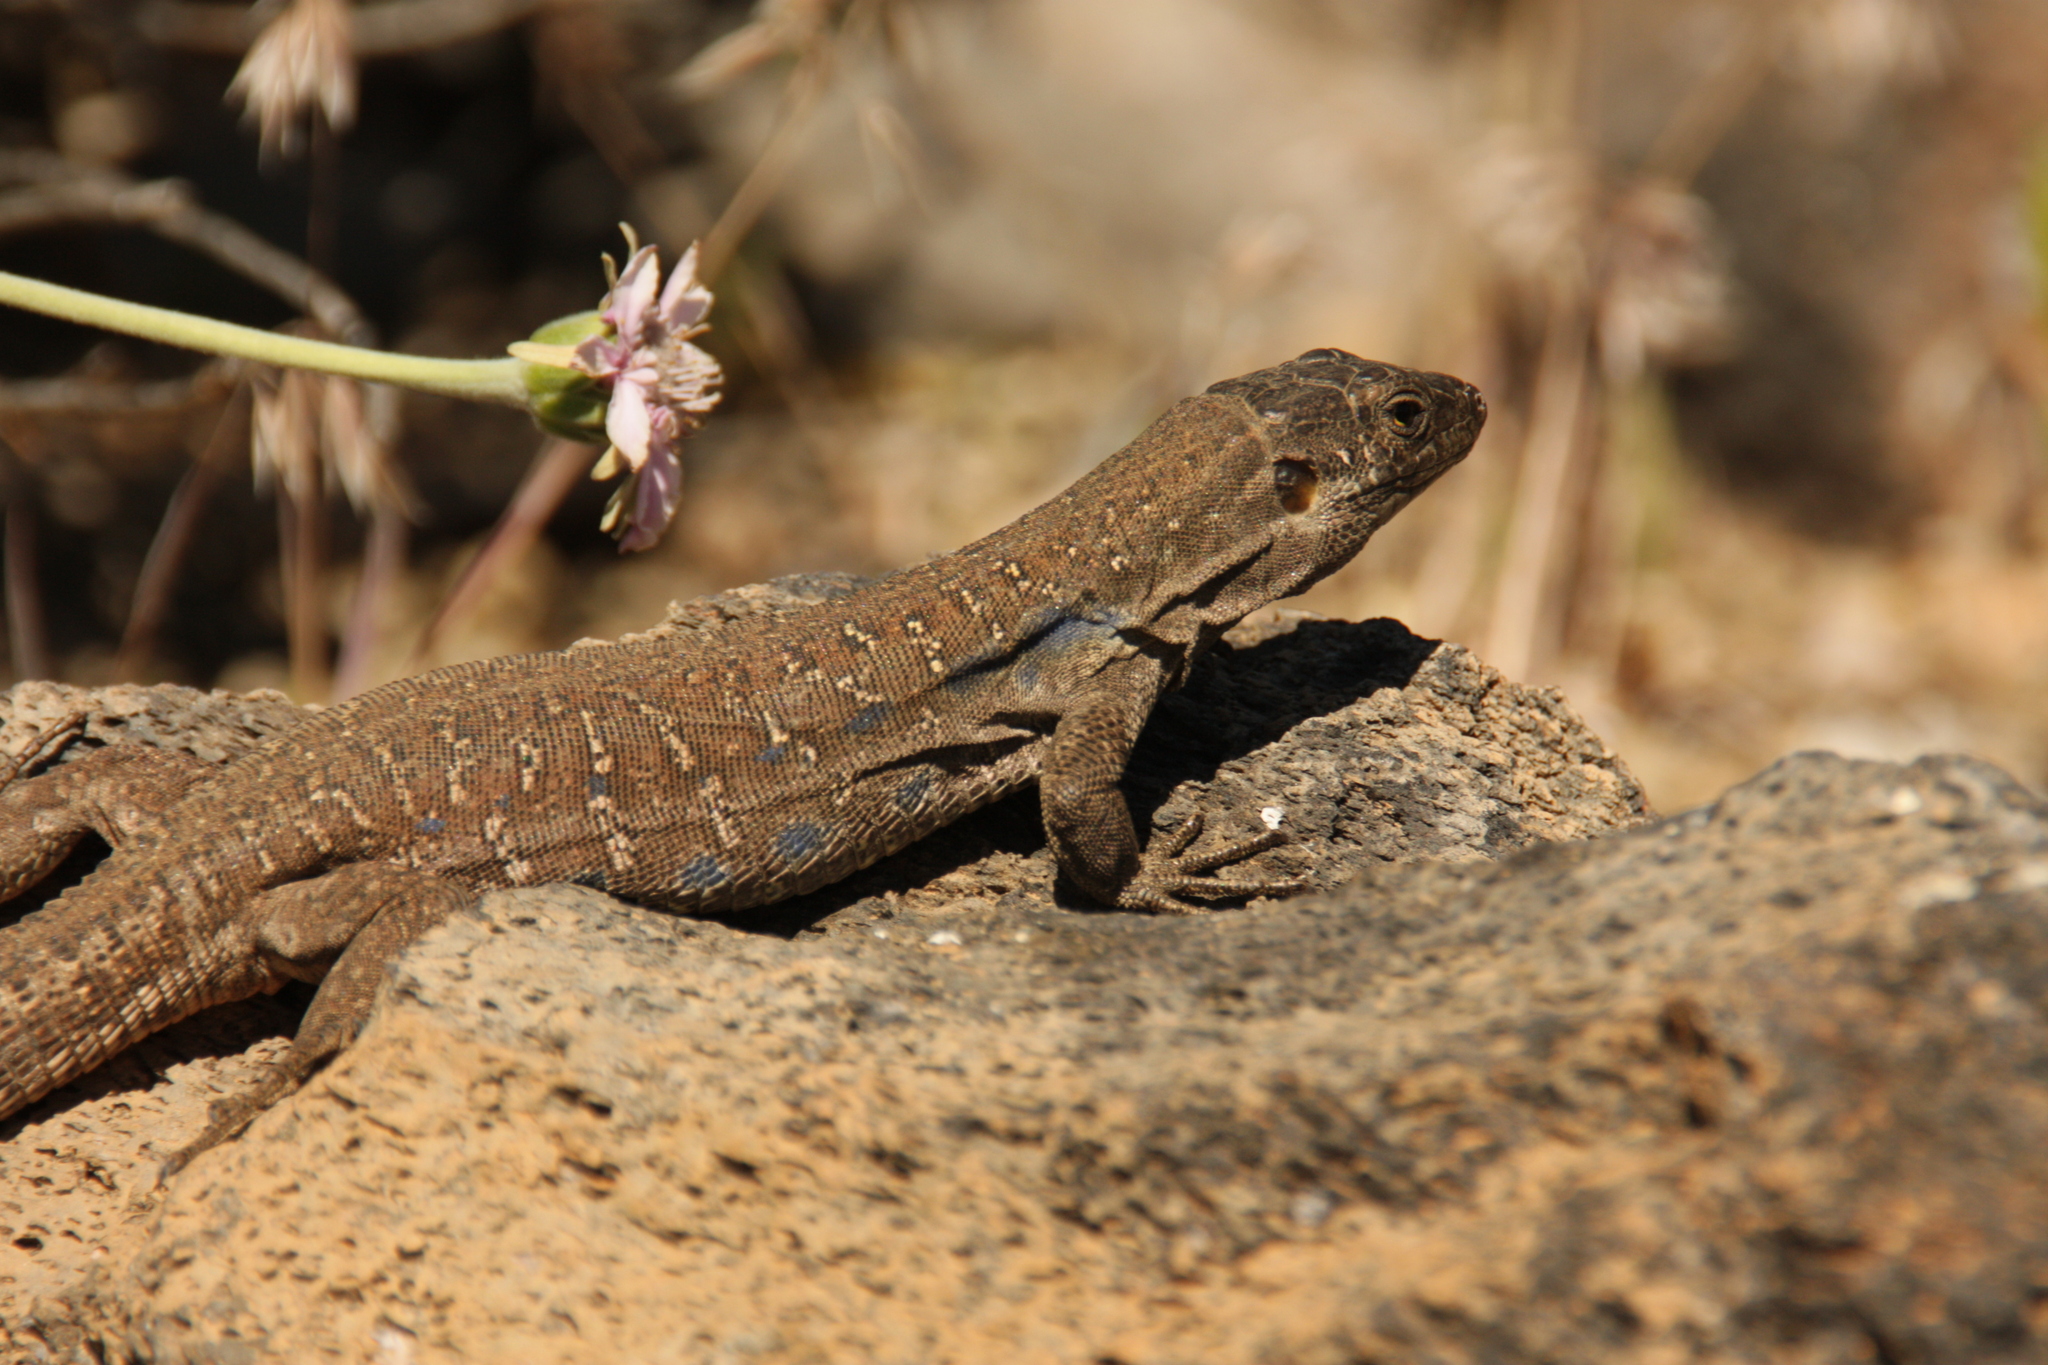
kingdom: Animalia
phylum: Chordata
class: Squamata
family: Lacertidae
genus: Gallotia
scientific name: Gallotia galloti
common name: Gallot's lizard
